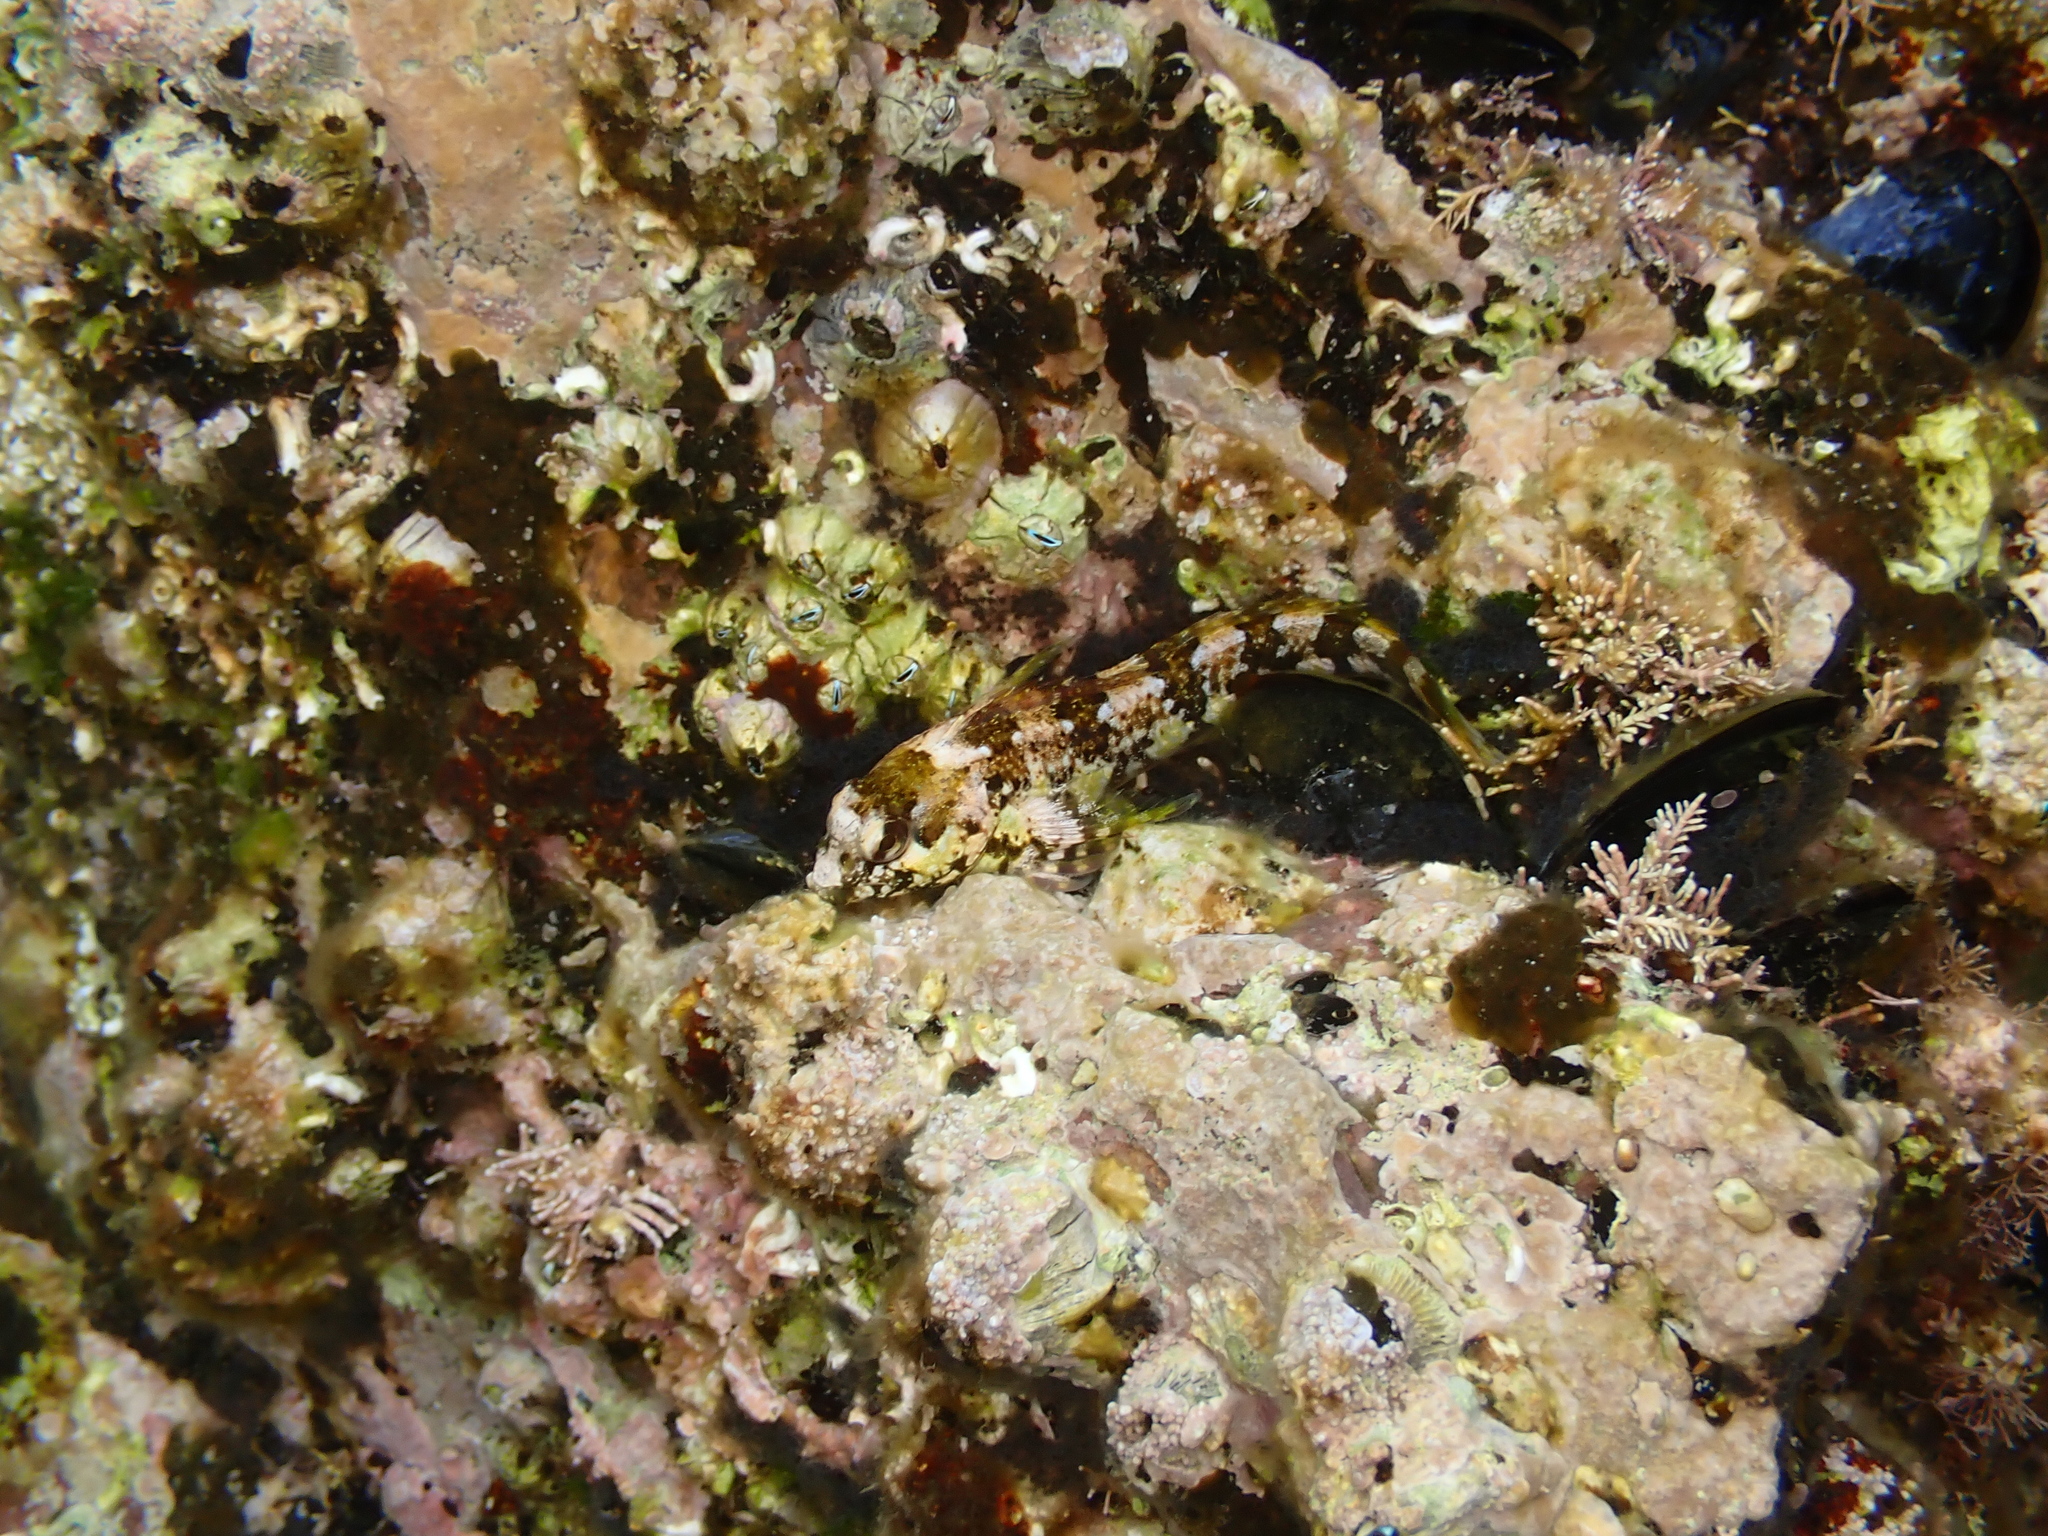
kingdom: Animalia
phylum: Chordata
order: Perciformes
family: Blenniidae
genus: Lipophrys
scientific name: Lipophrys trigloides
